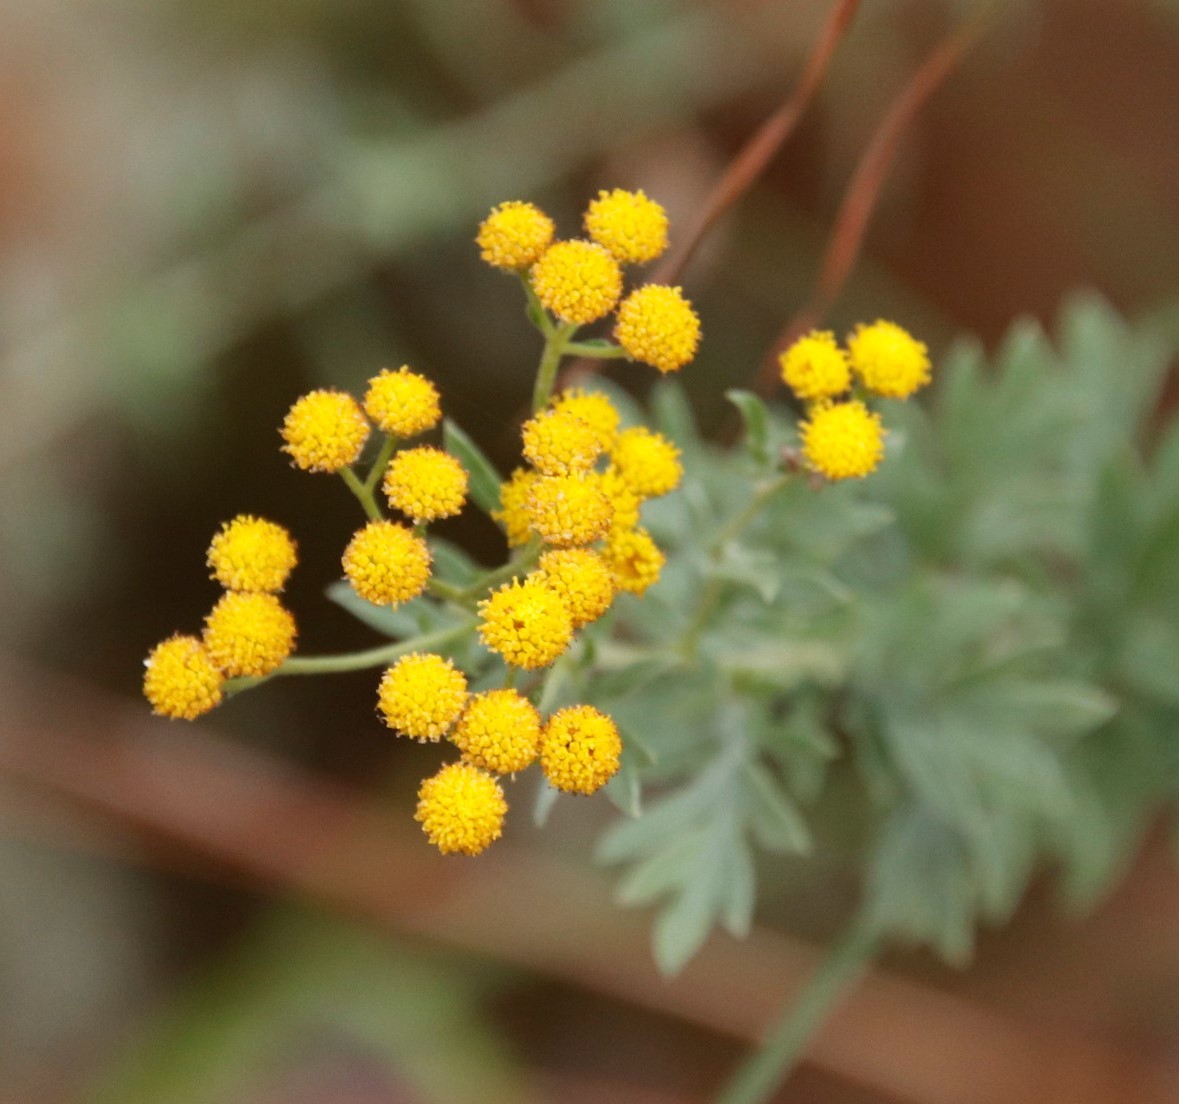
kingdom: Plantae
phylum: Tracheophyta
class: Magnoliopsida
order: Asterales
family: Asteraceae
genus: Schistostephium
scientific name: Schistostephium crataegifolium
